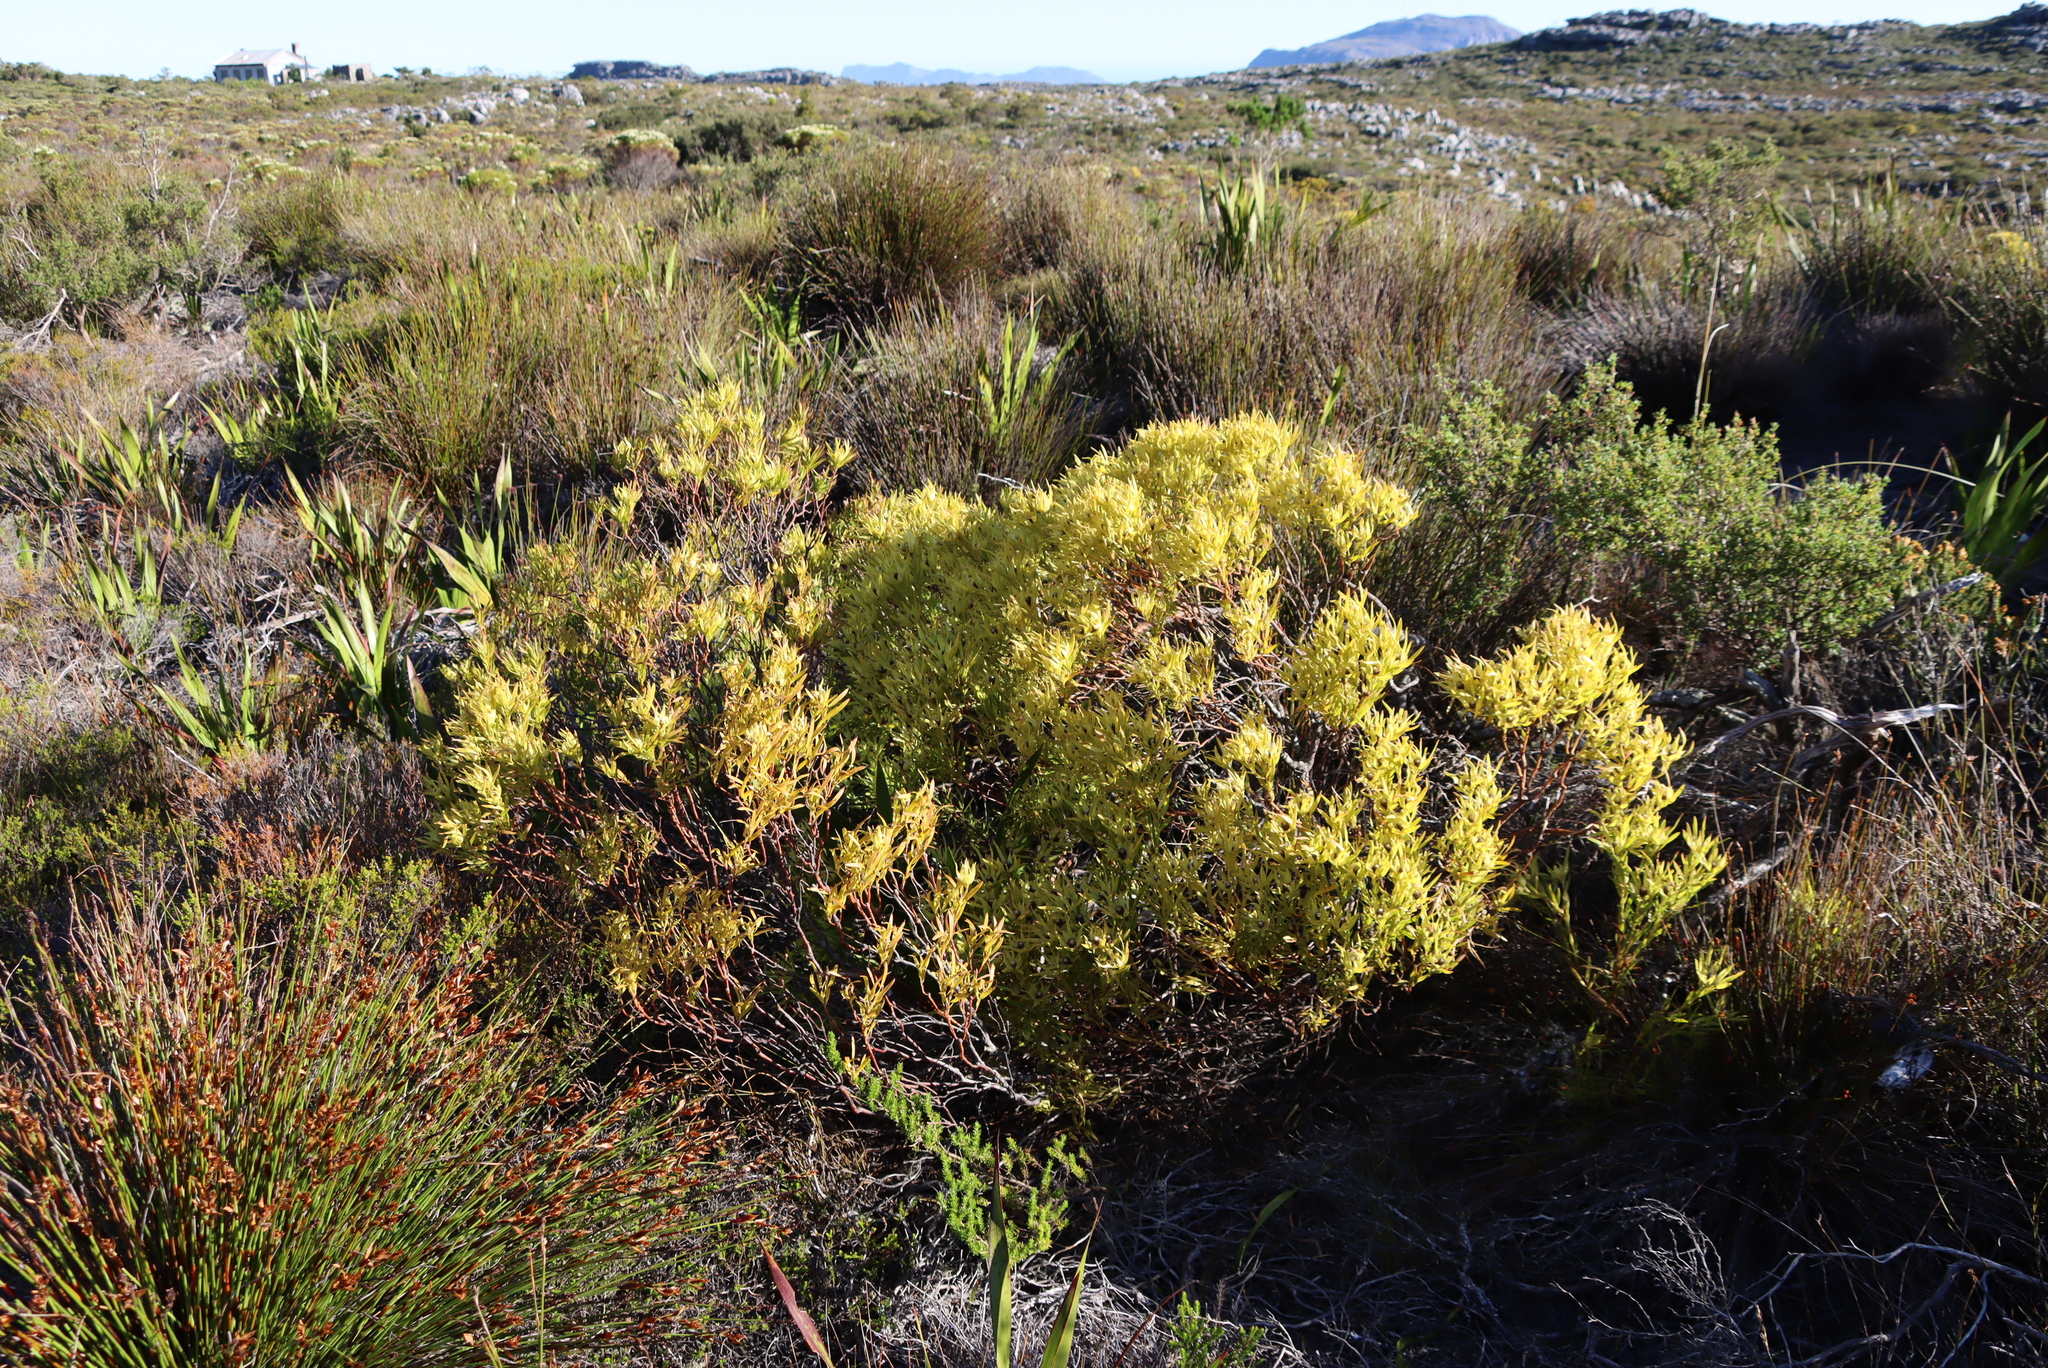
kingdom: Plantae
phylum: Tracheophyta
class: Magnoliopsida
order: Proteales
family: Proteaceae
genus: Leucadendron
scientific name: Leucadendron salignum
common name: Common sunshine conebush
